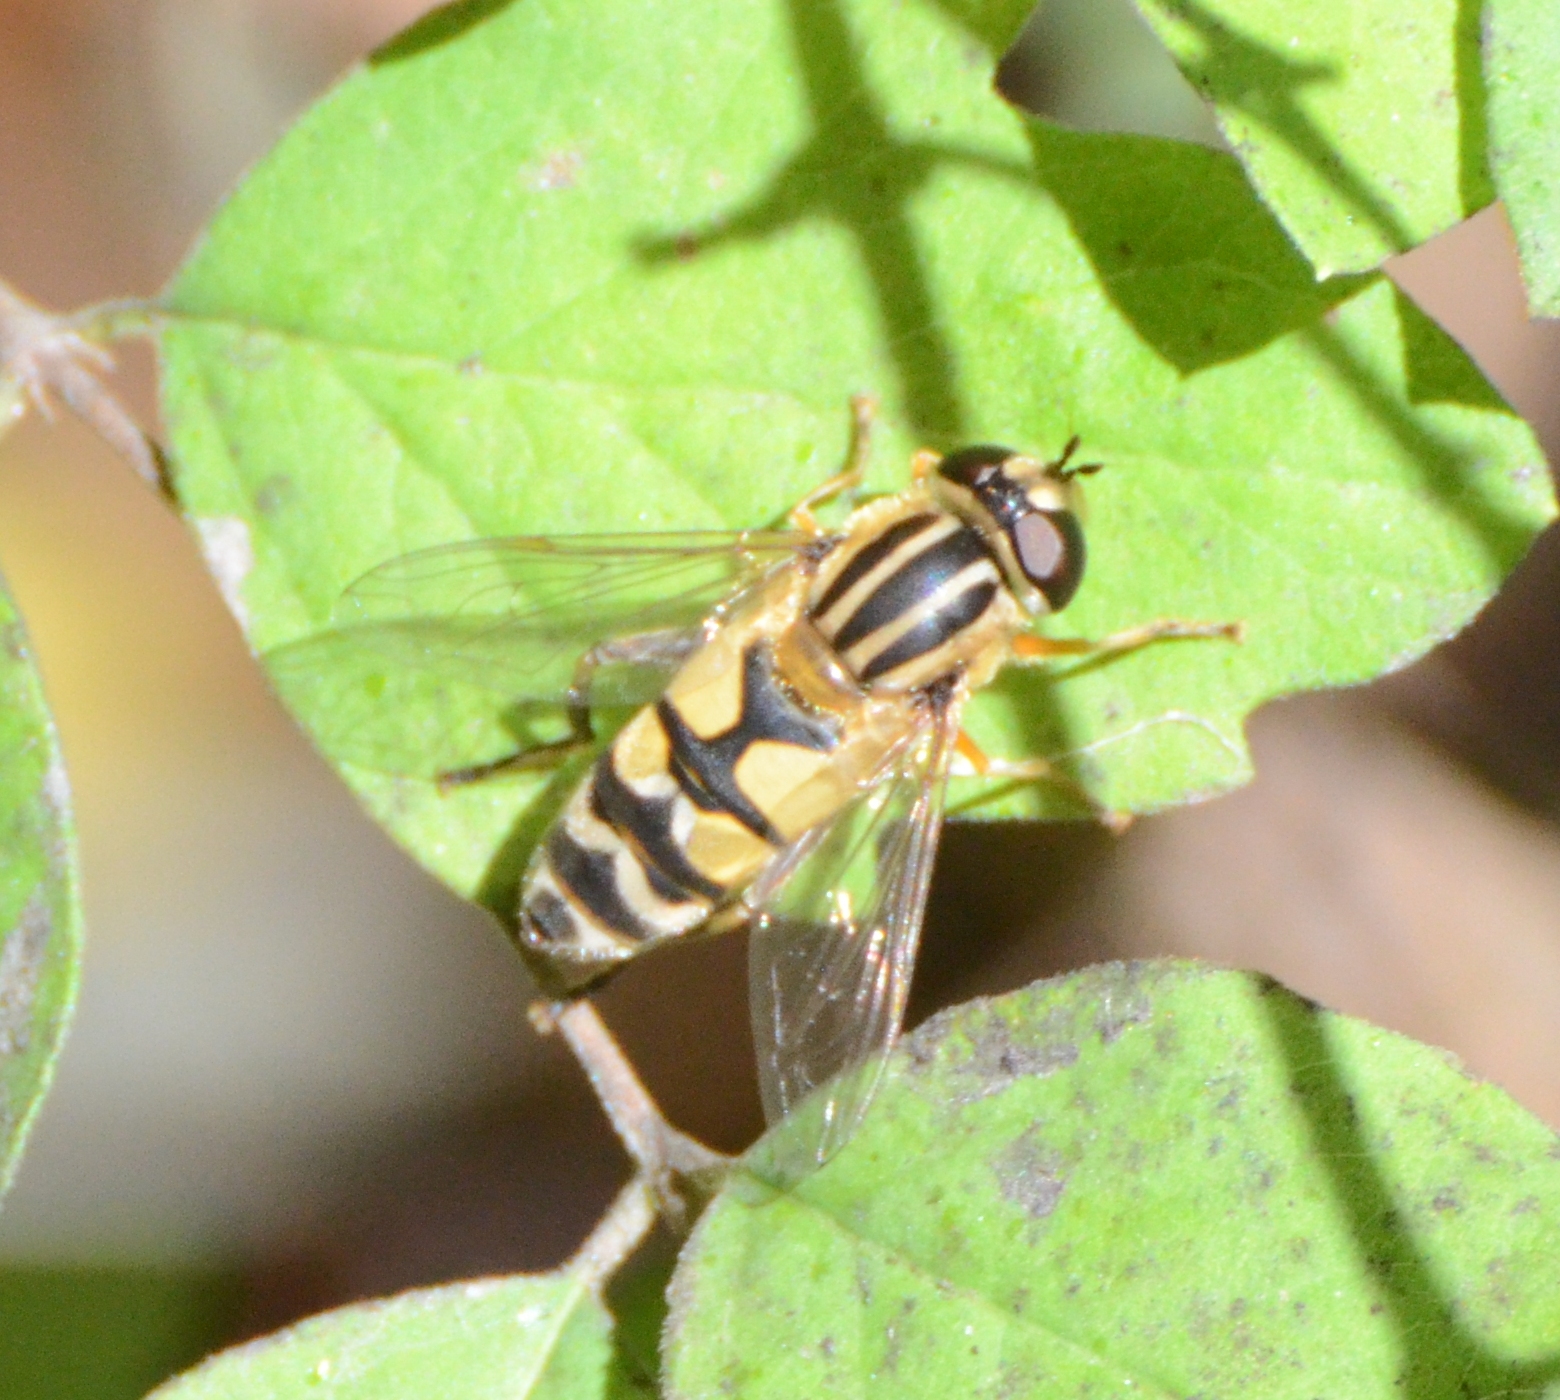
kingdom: Animalia
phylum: Arthropoda
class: Insecta
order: Diptera
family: Syrphidae
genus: Helophilus
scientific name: Helophilus trivittatus
